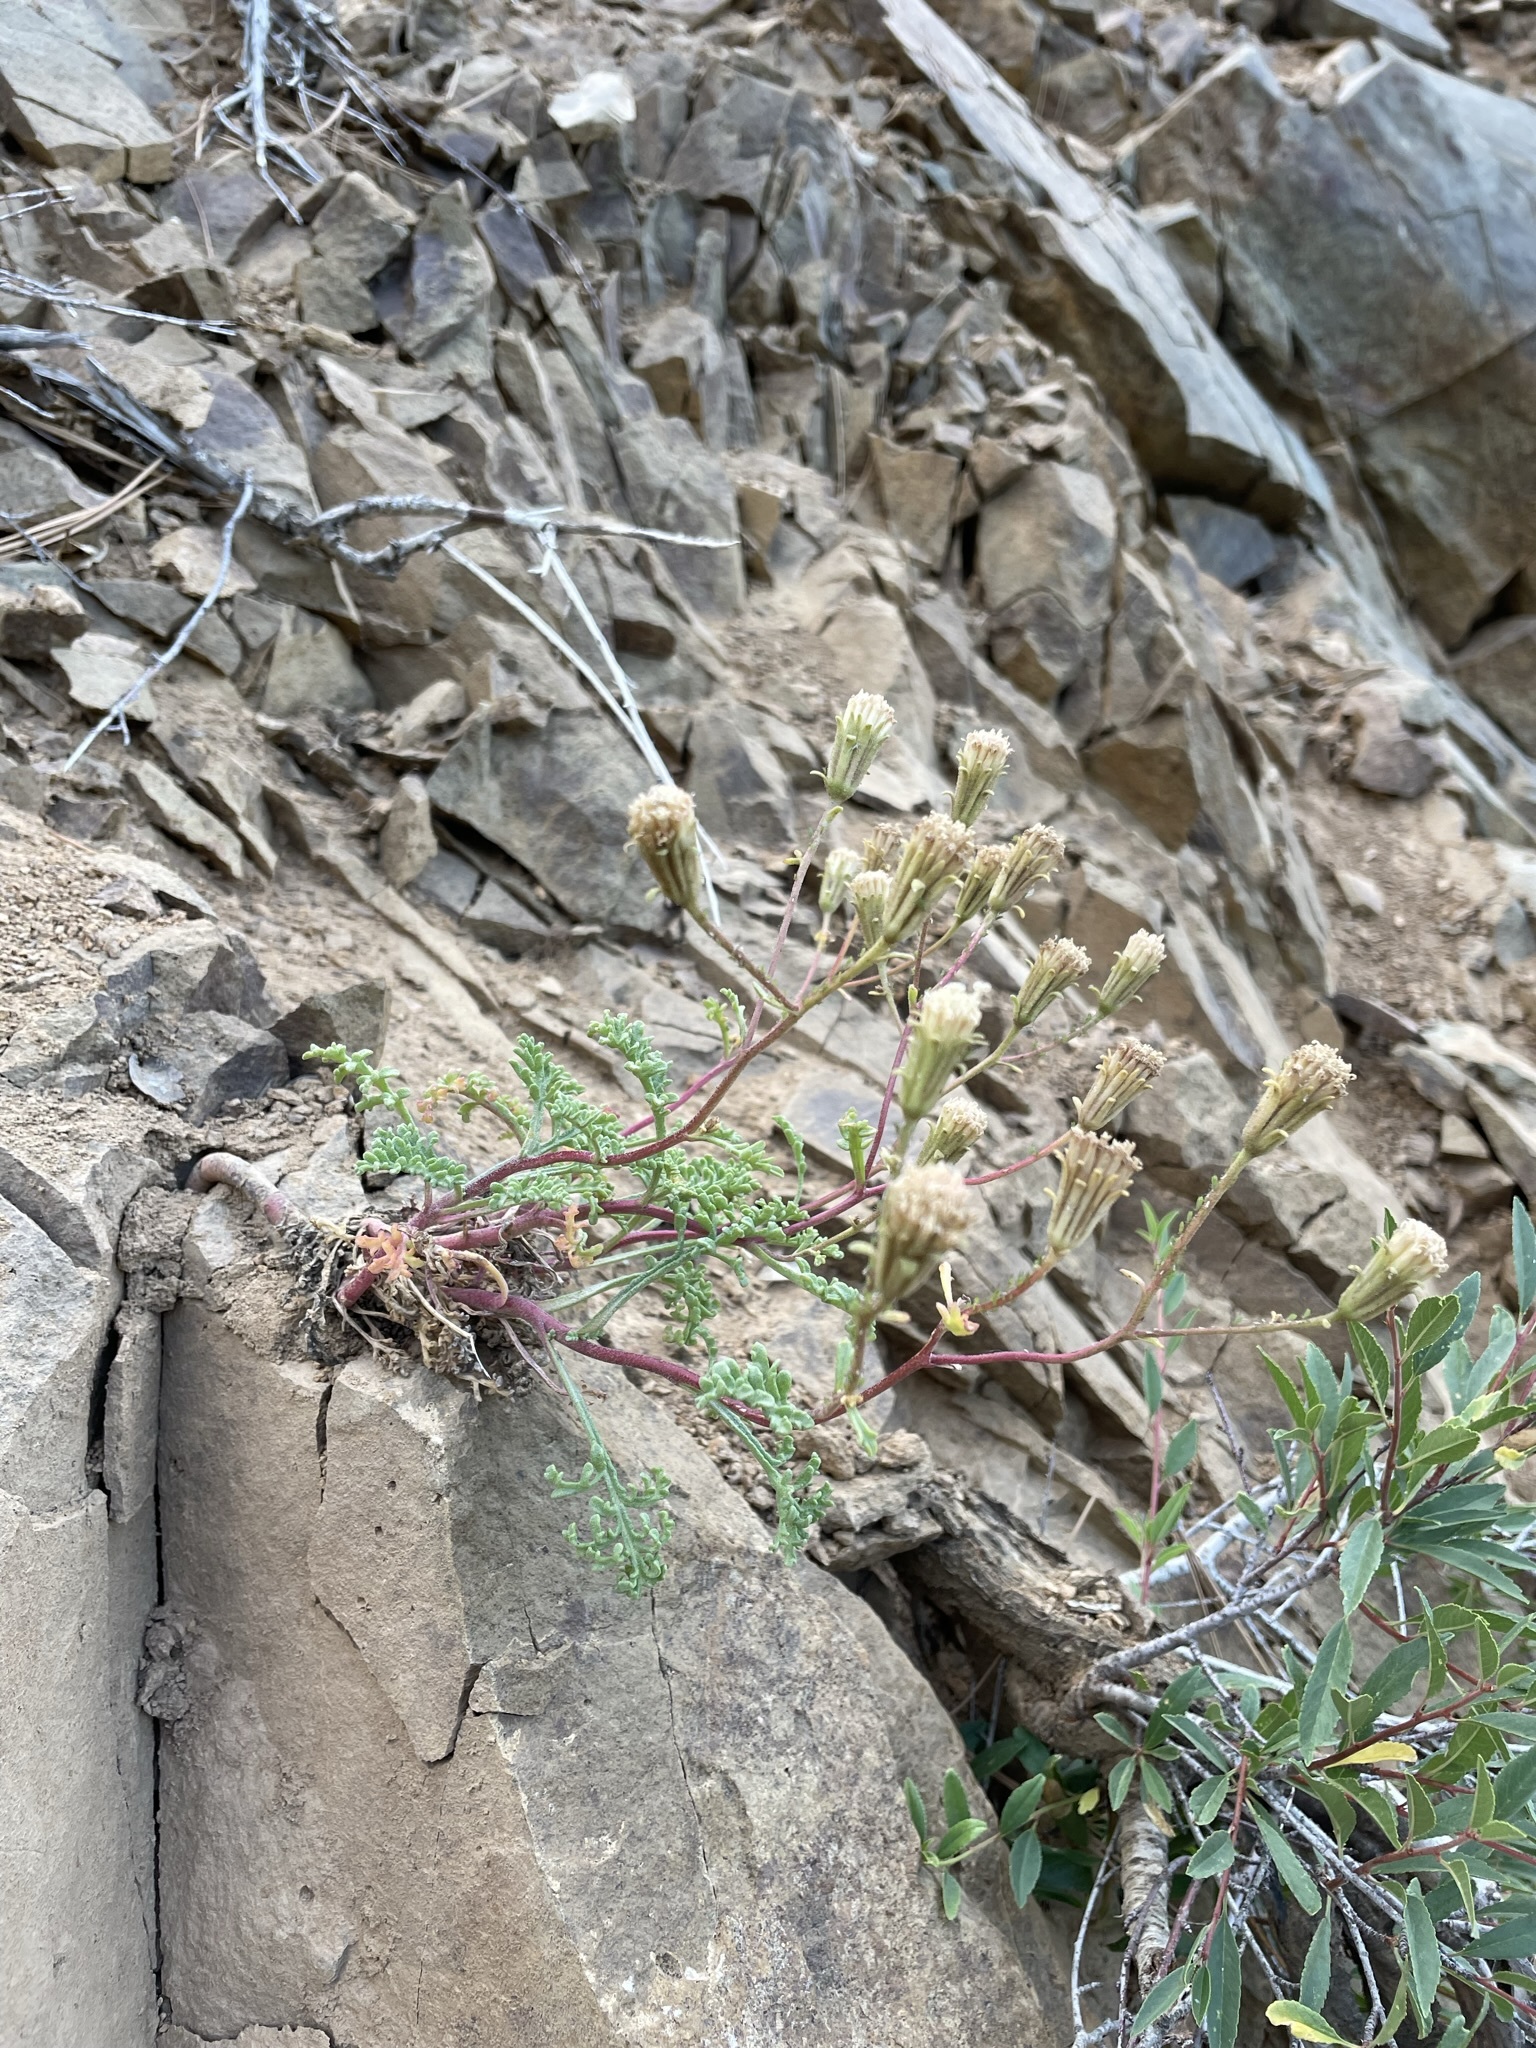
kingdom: Plantae
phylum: Tracheophyta
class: Magnoliopsida
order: Asterales
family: Asteraceae
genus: Chaenactis
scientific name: Chaenactis douglasii
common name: Hoary pincushion
